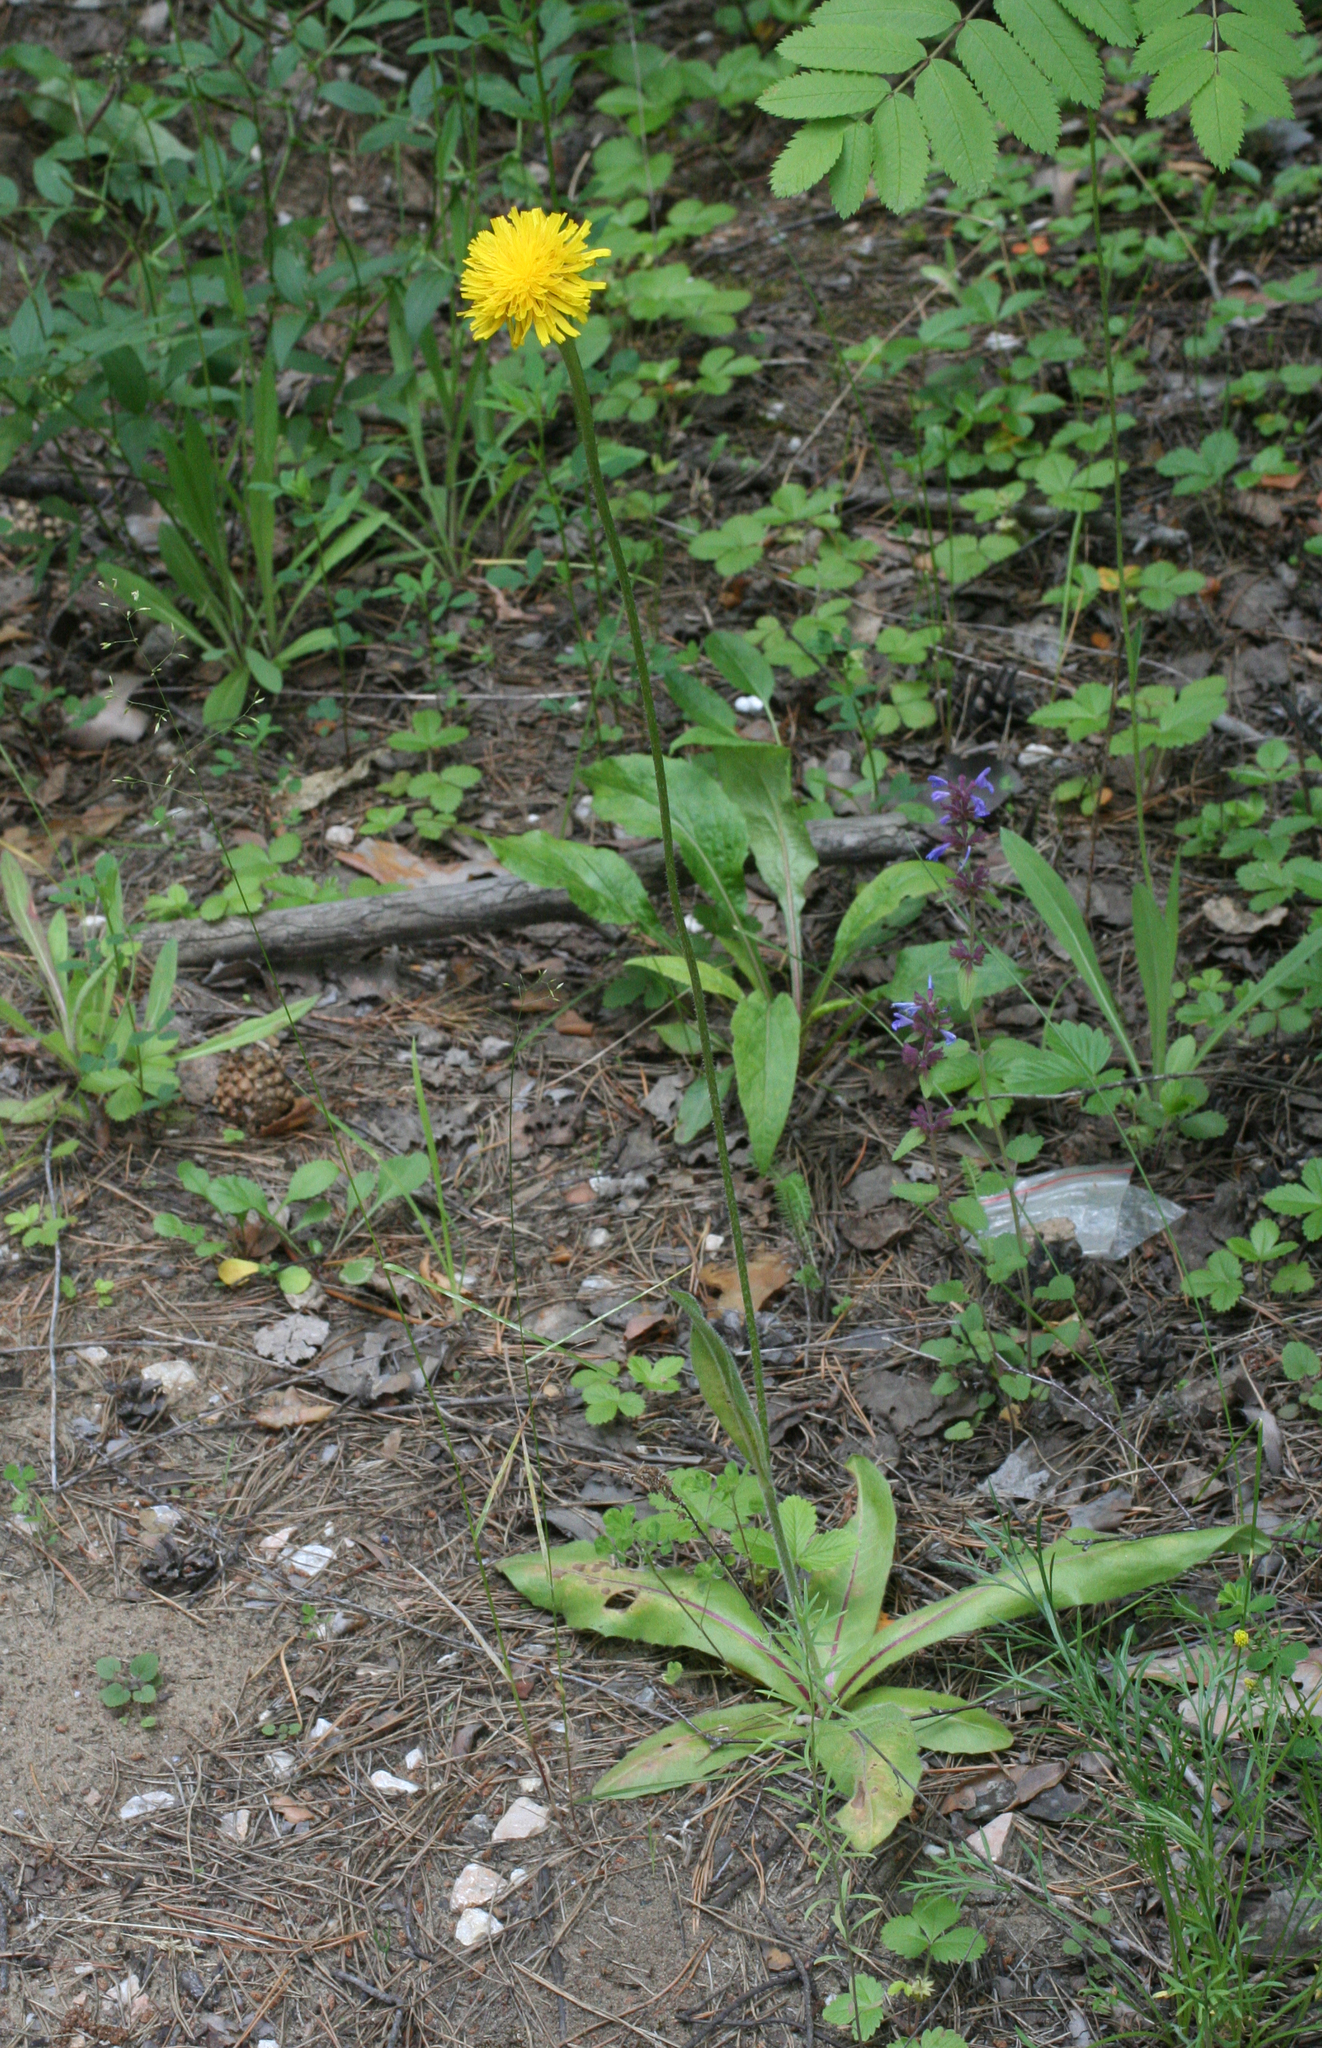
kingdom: Plantae
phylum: Tracheophyta
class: Magnoliopsida
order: Asterales
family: Asteraceae
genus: Trommsdorffia
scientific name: Trommsdorffia maculata
